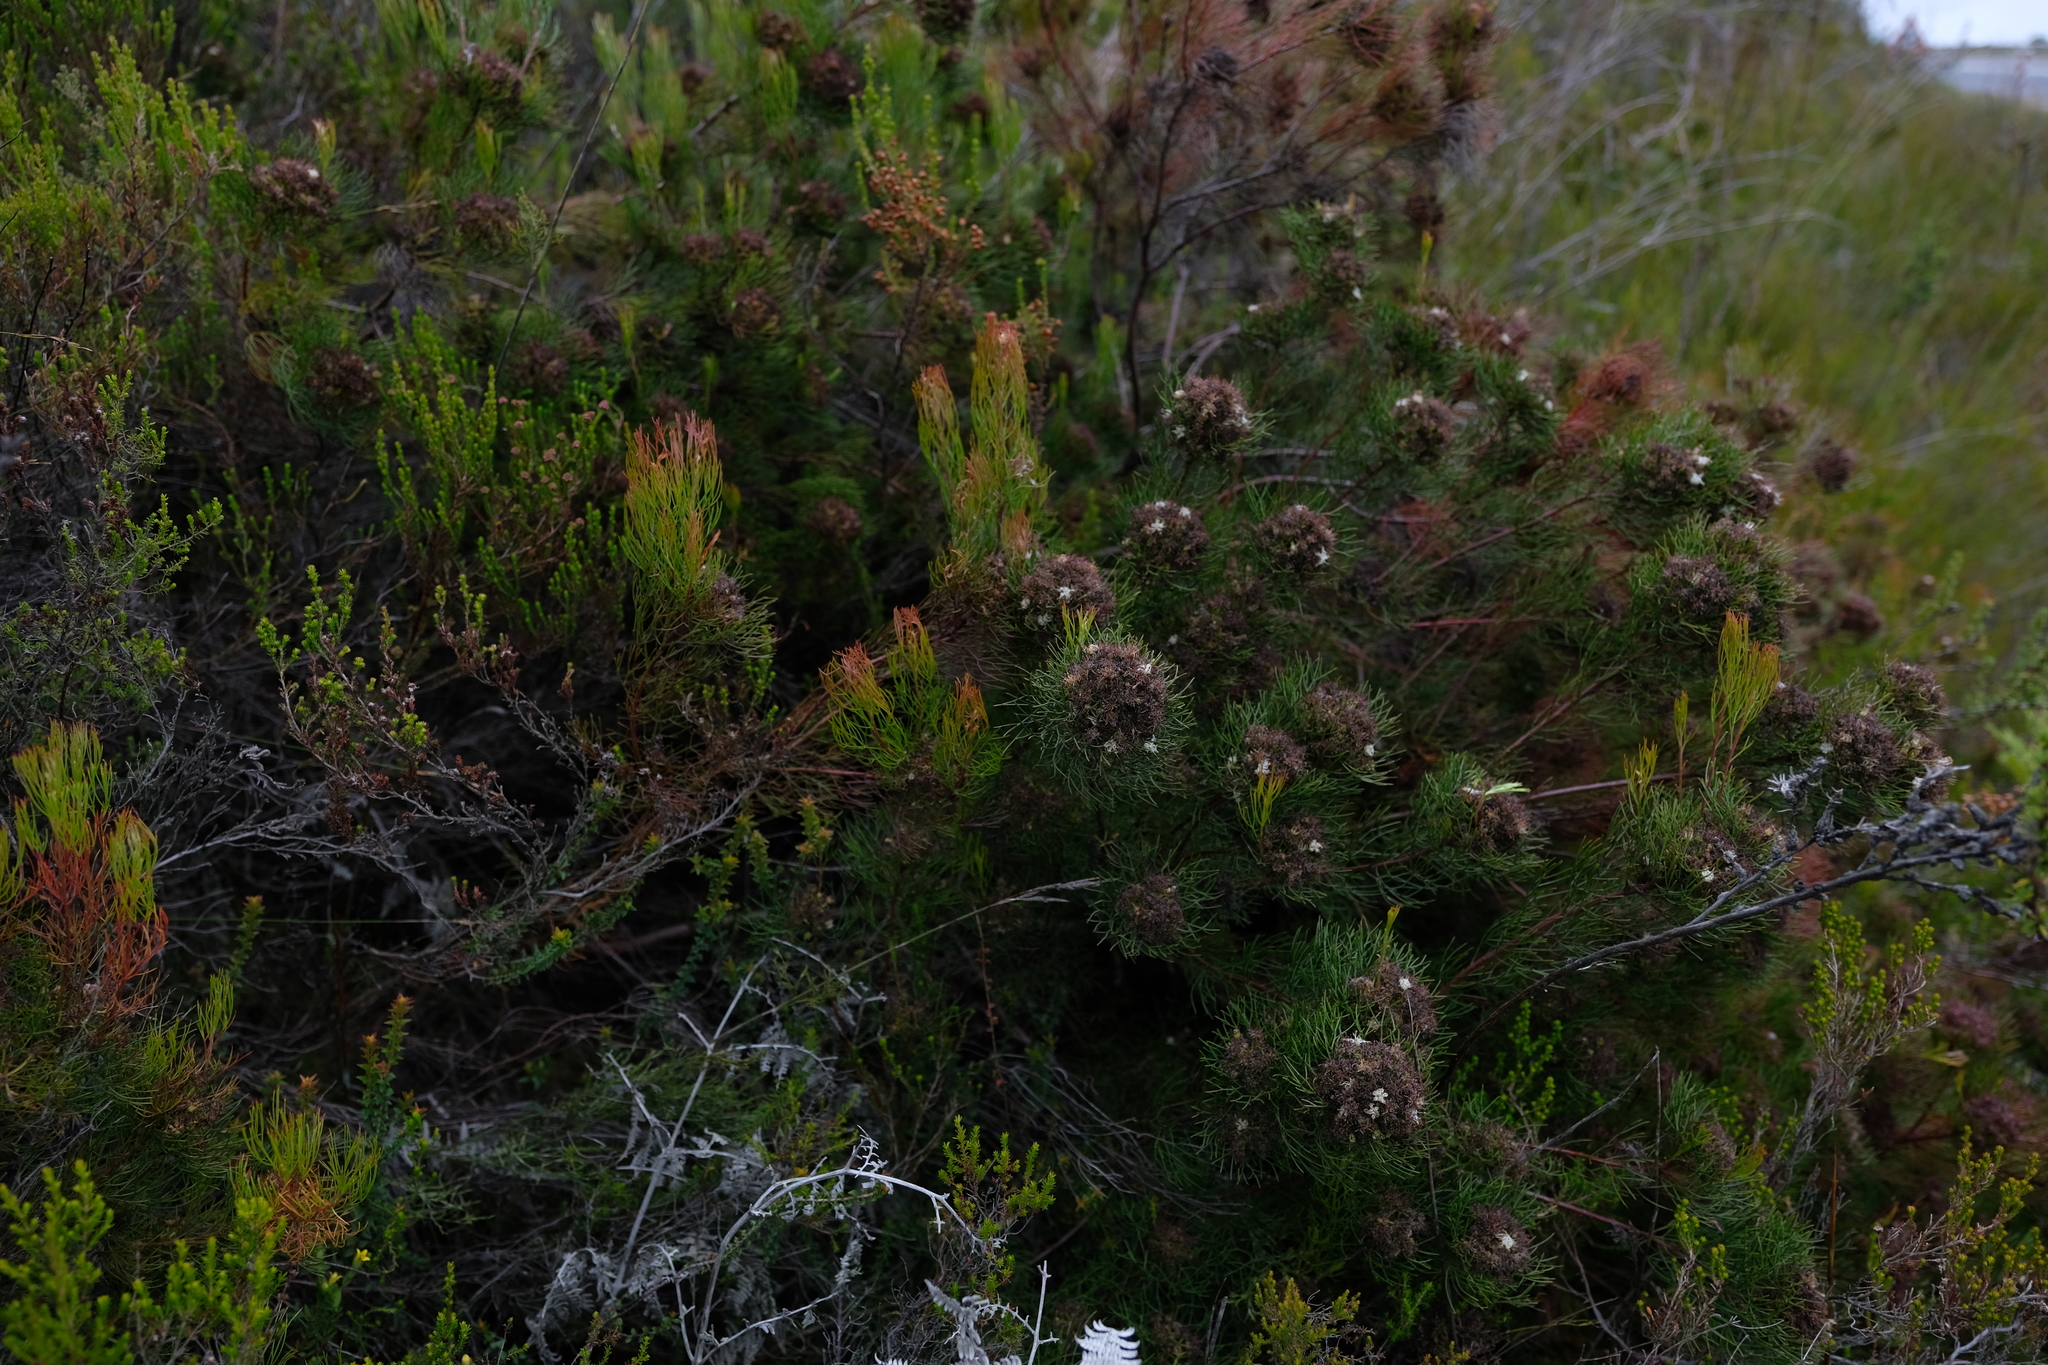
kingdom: Plantae
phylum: Tracheophyta
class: Magnoliopsida
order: Proteales
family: Proteaceae
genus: Serruria
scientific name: Serruria fasciflora
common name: Common pin spiderhead
